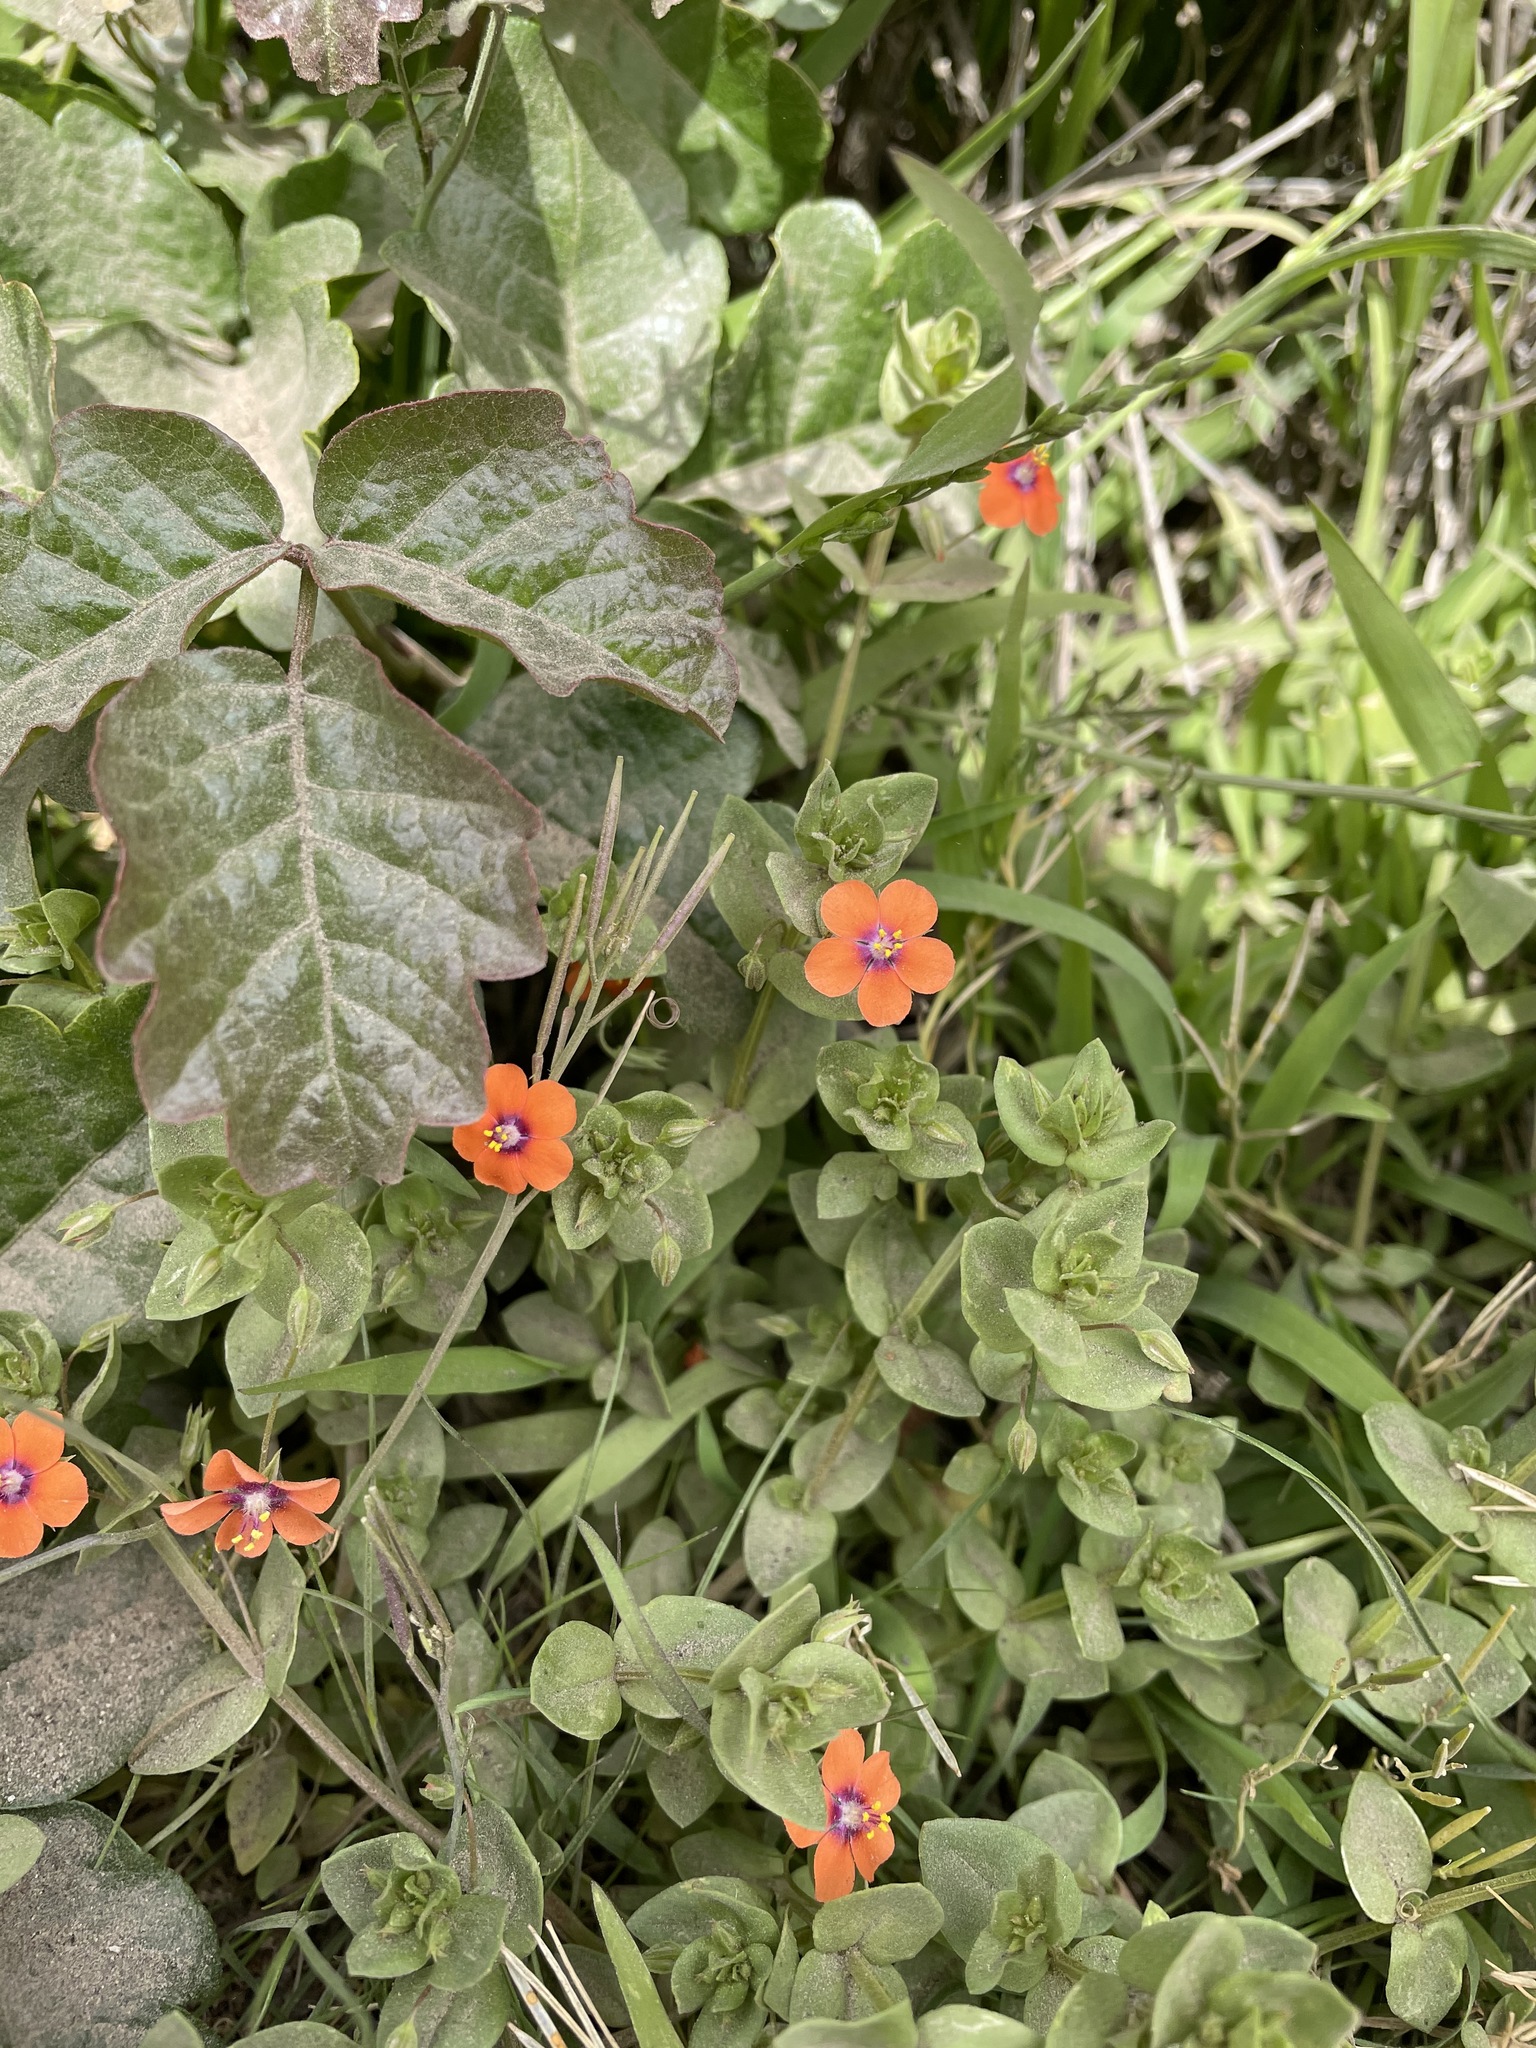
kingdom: Plantae
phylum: Tracheophyta
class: Magnoliopsida
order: Ericales
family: Primulaceae
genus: Lysimachia
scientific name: Lysimachia arvensis
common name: Scarlet pimpernel
